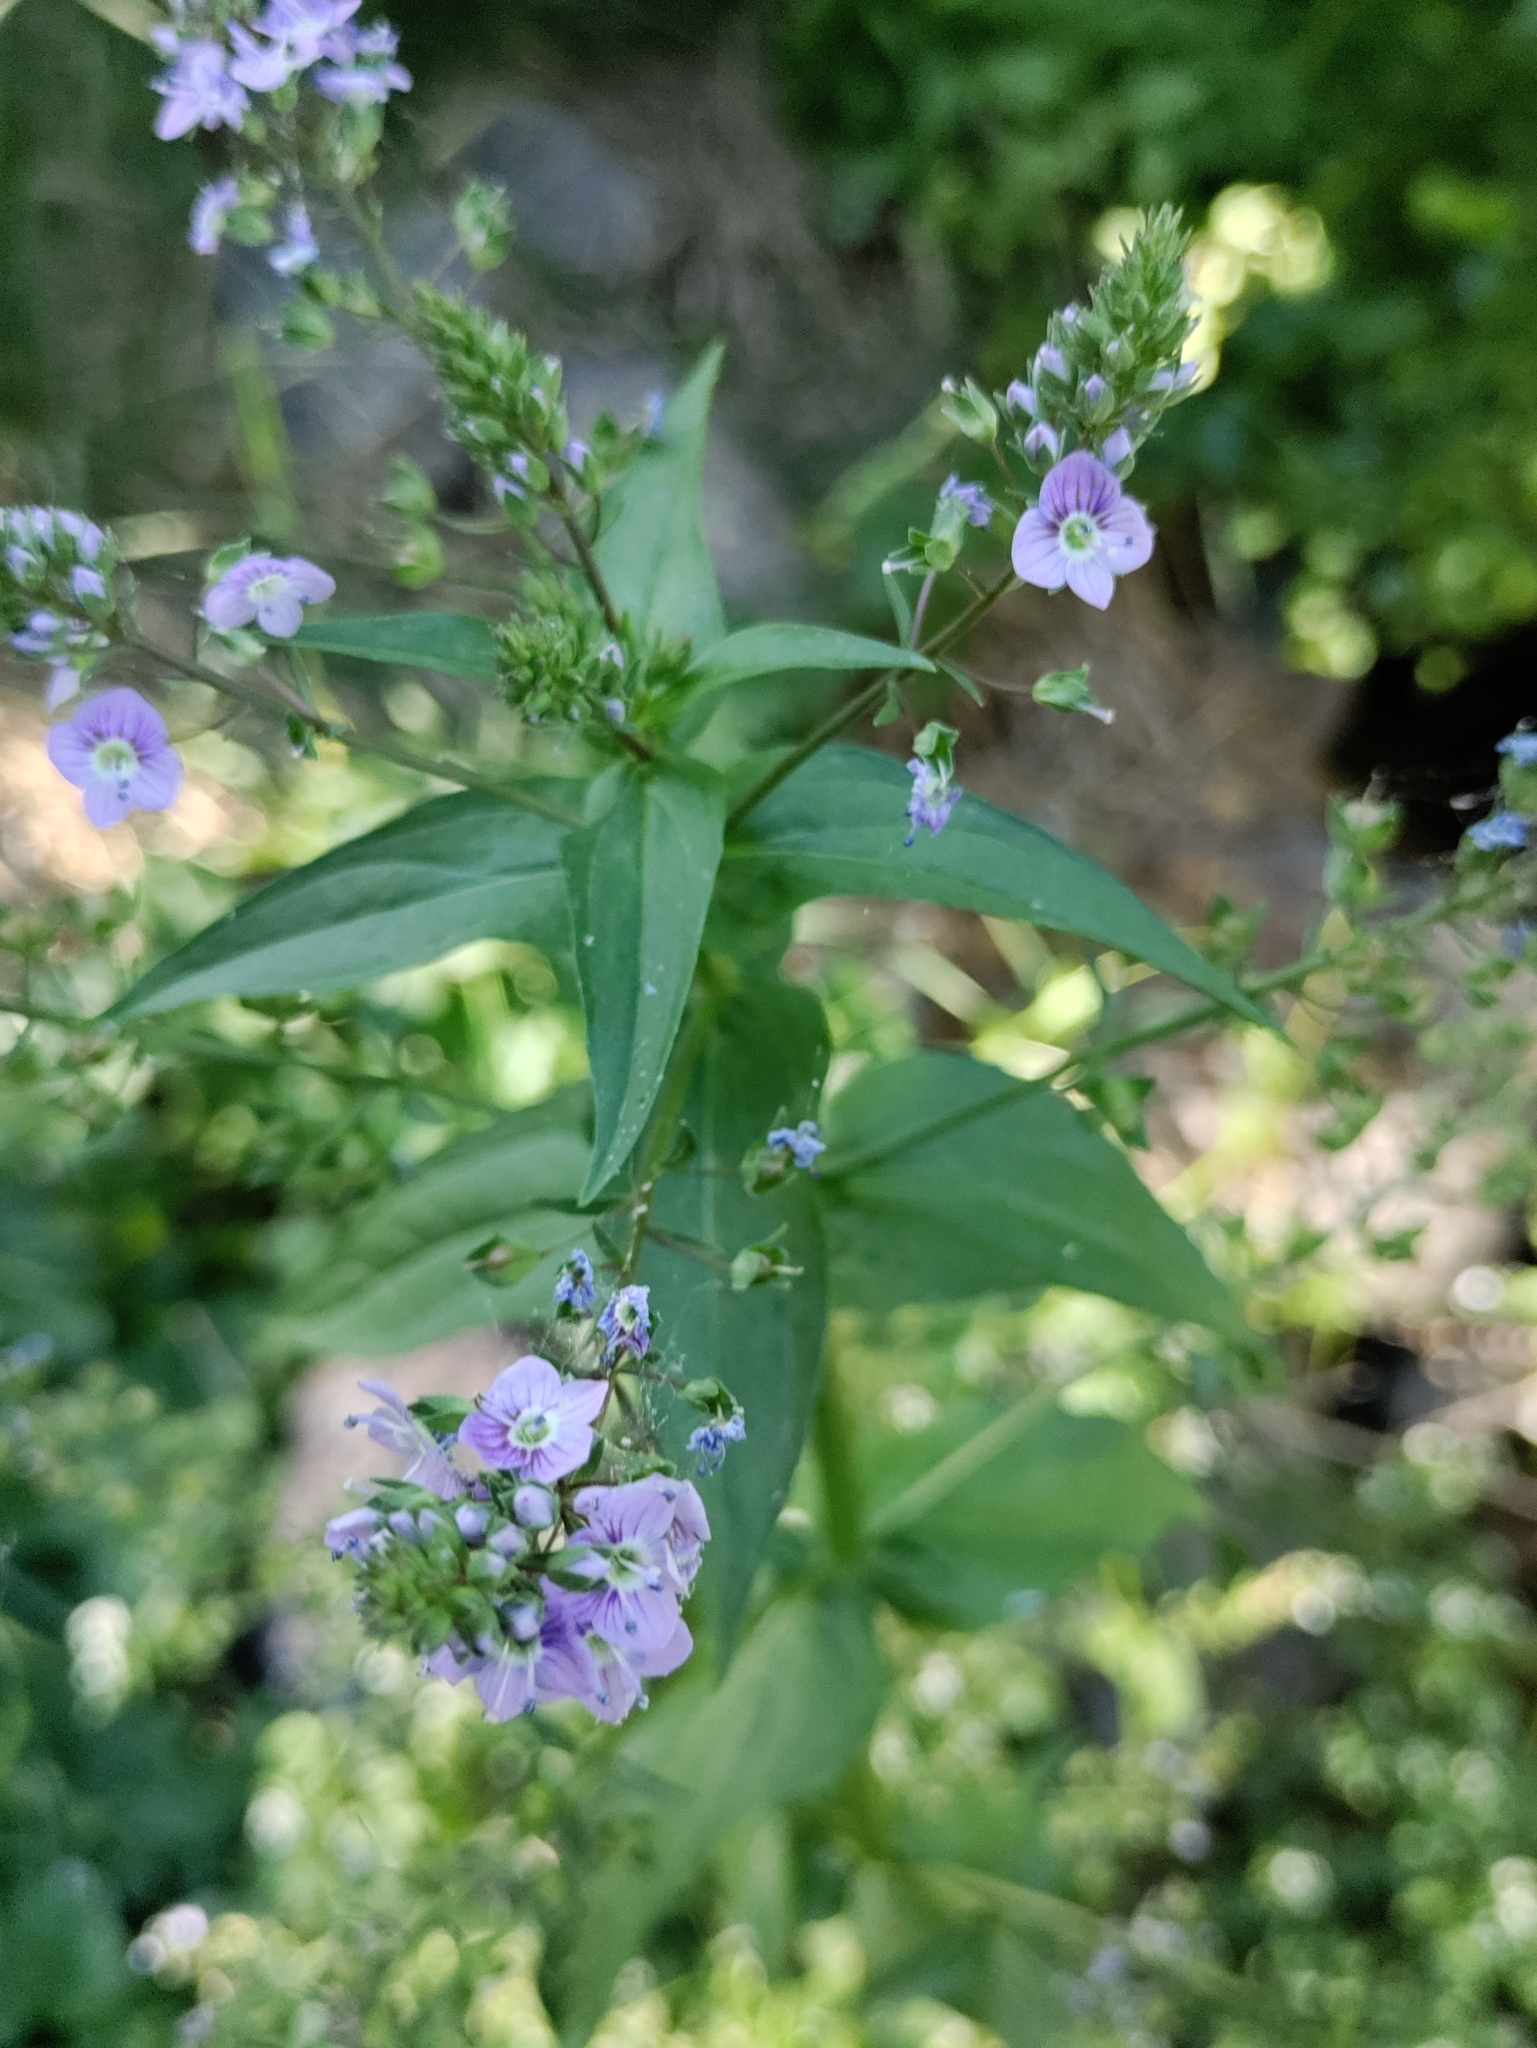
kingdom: Plantae
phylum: Tracheophyta
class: Magnoliopsida
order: Lamiales
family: Plantaginaceae
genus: Veronica
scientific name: Veronica anagallis-aquatica
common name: Water speedwell
